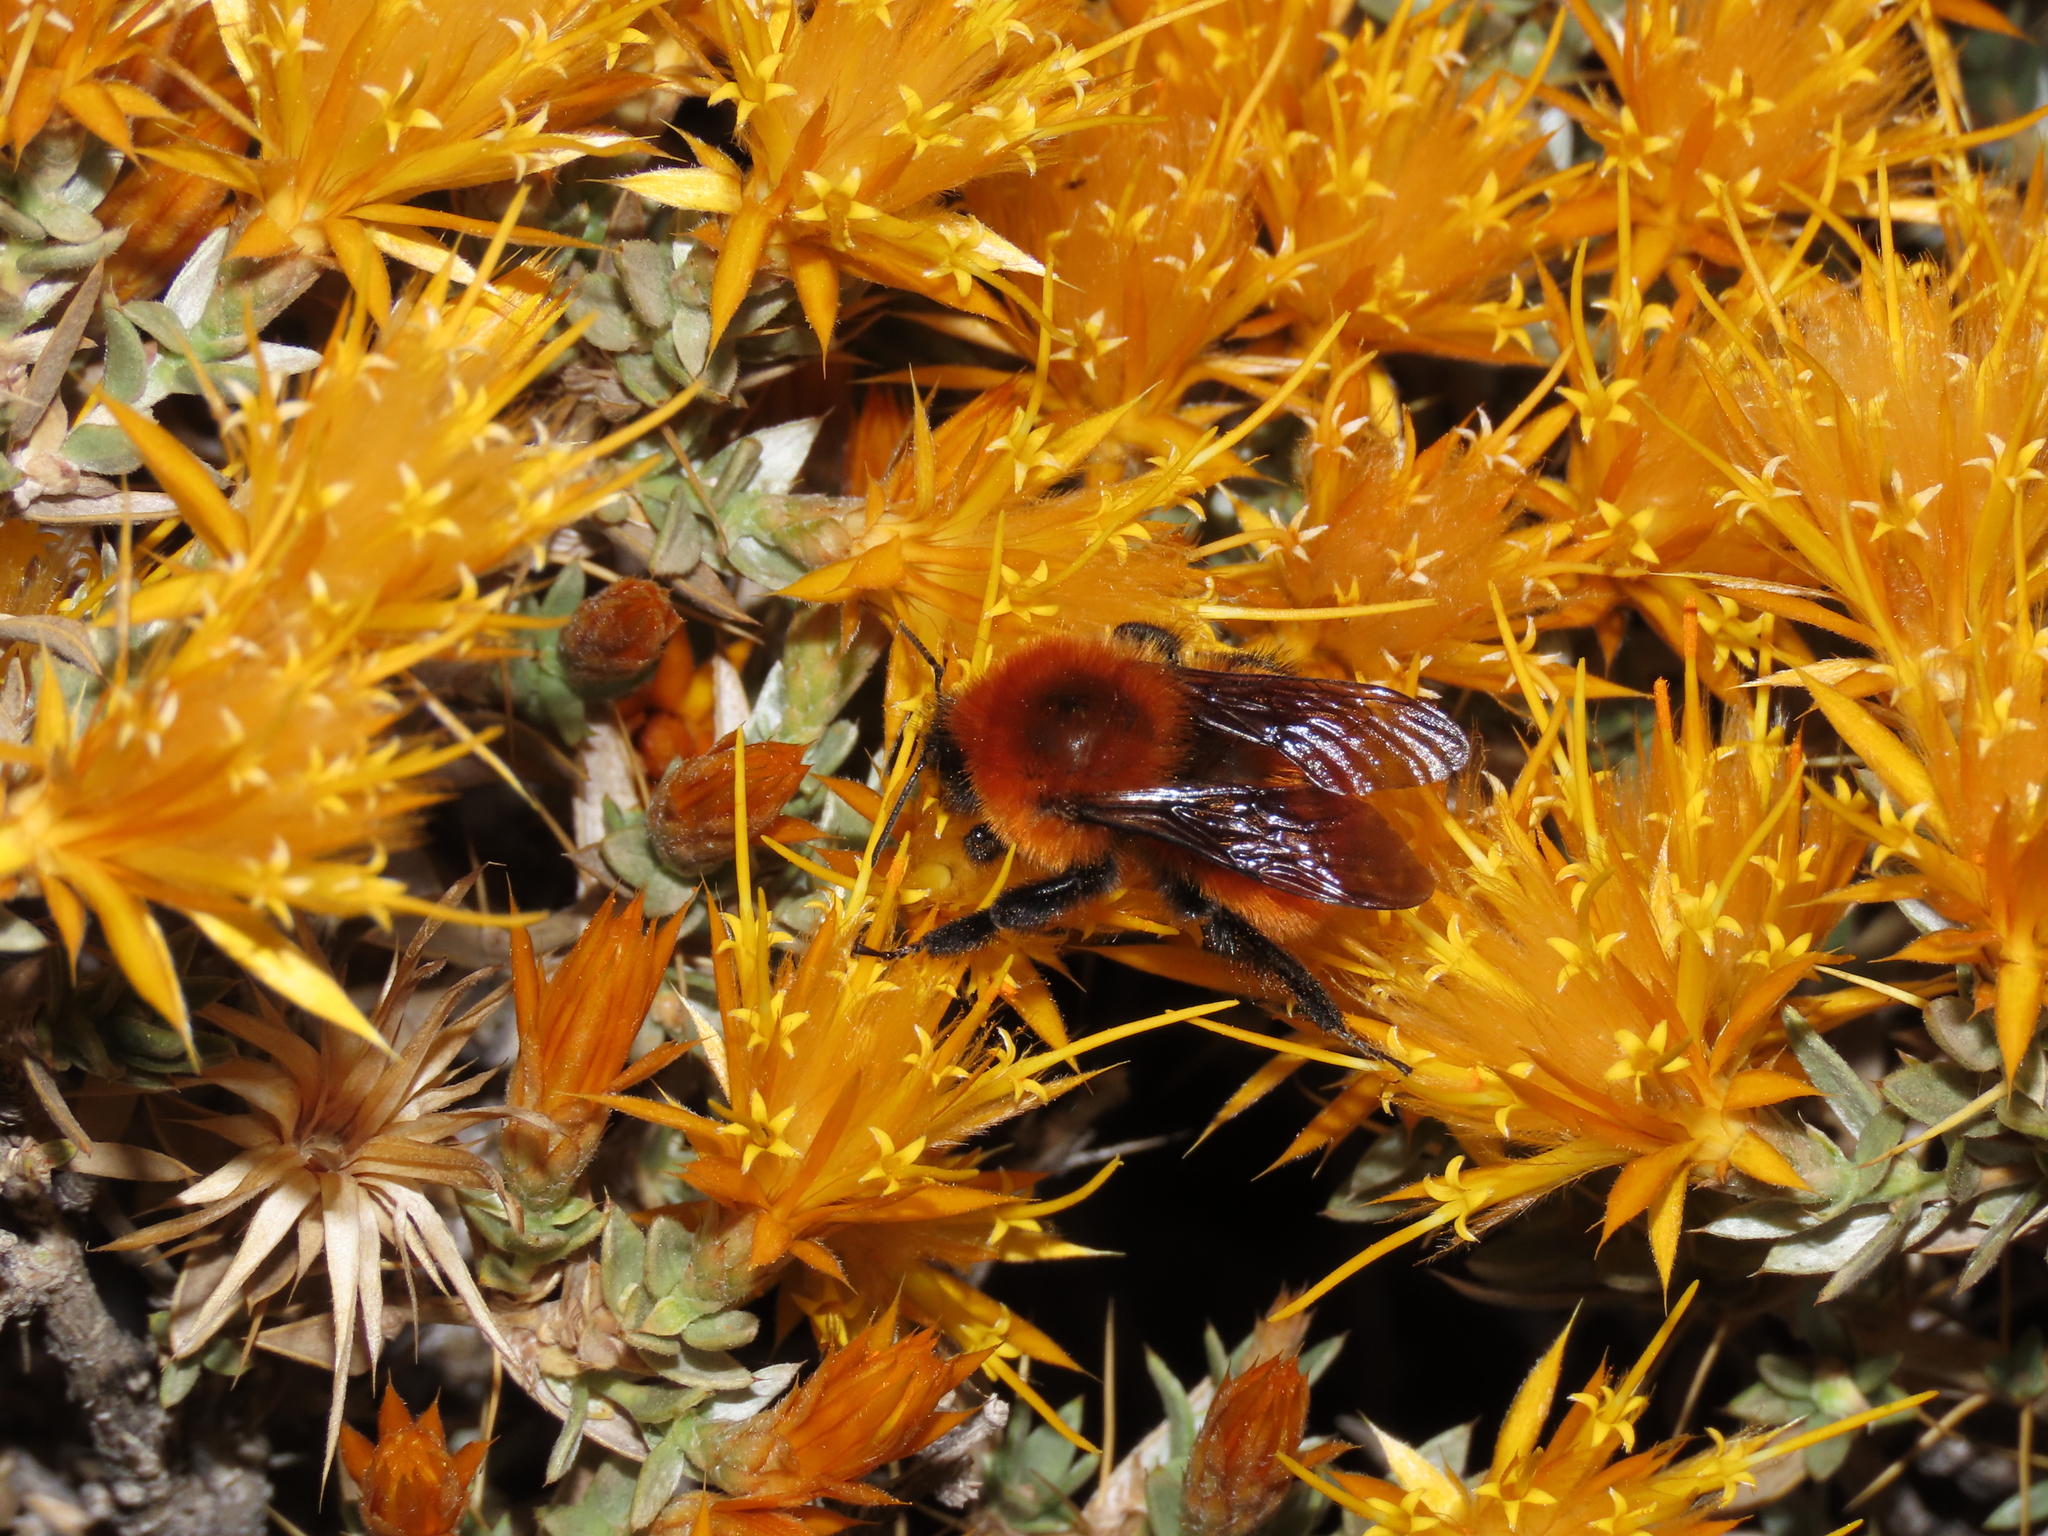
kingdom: Animalia
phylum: Arthropoda
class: Insecta
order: Hymenoptera
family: Apidae
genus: Bombus
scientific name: Bombus dahlbomii
